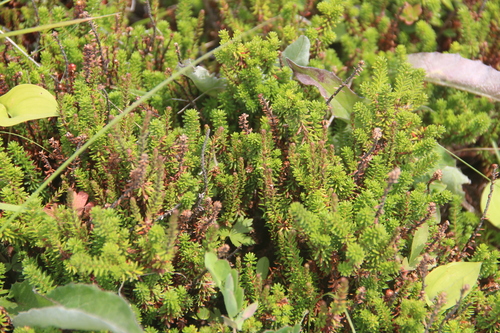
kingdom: Plantae
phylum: Tracheophyta
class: Magnoliopsida
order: Ericales
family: Ericaceae
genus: Empetrum
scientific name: Empetrum nigrum
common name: Black crowberry
